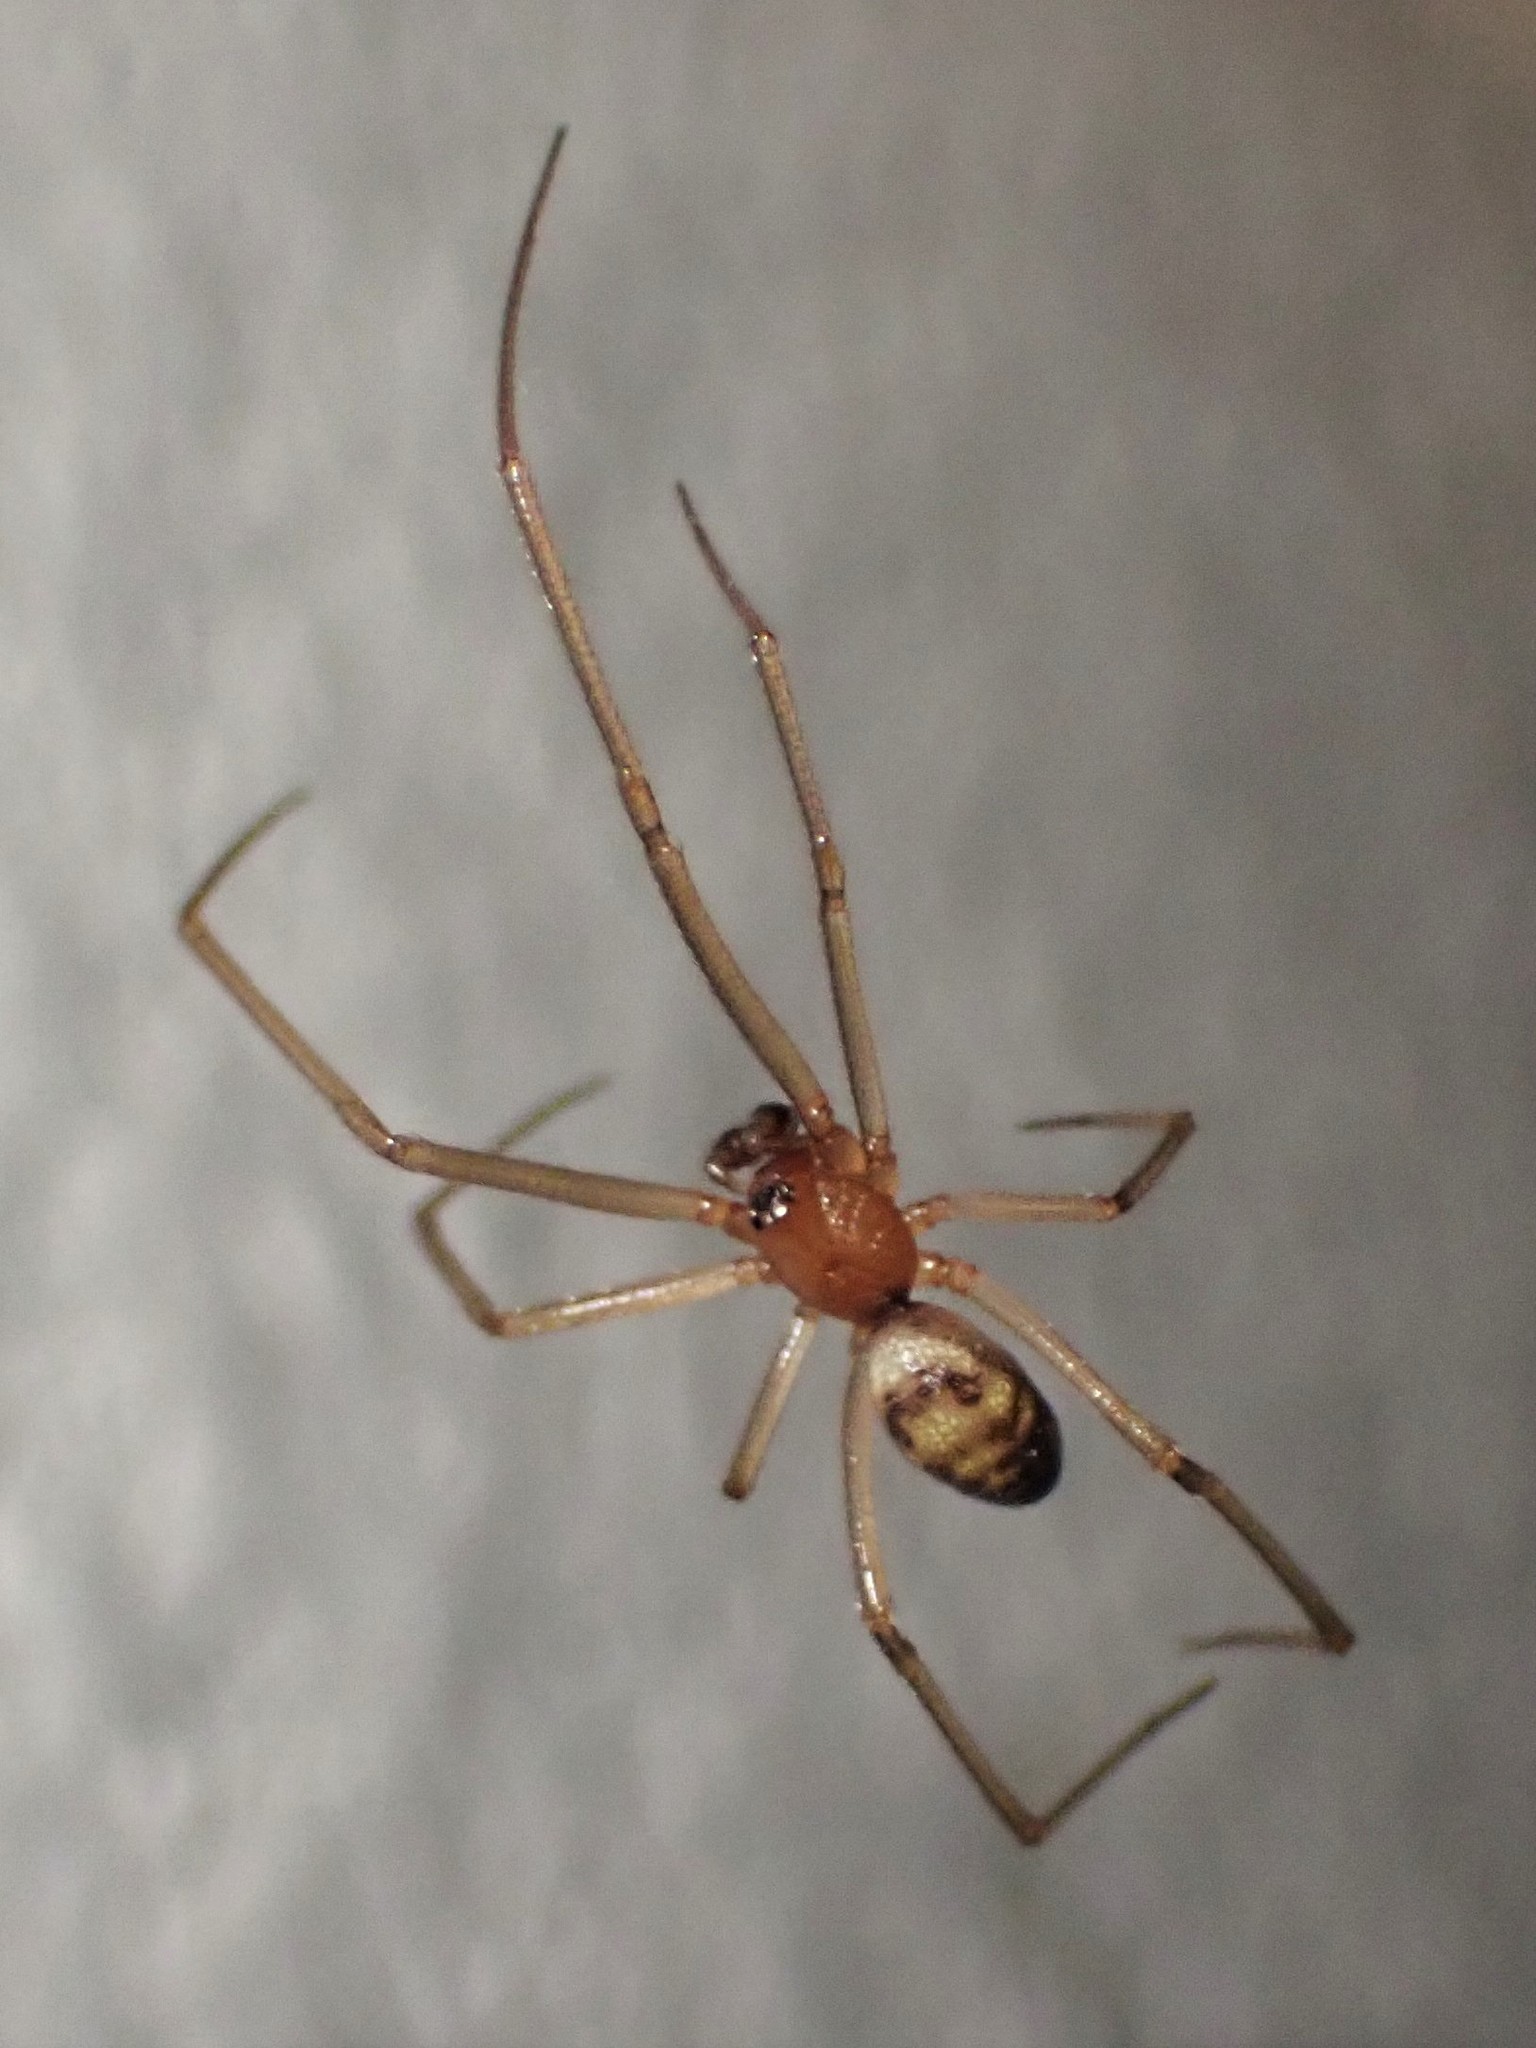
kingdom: Animalia
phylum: Arthropoda
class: Arachnida
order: Araneae
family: Theridiidae
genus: Steatoda
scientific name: Steatoda grossa
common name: False black widow
